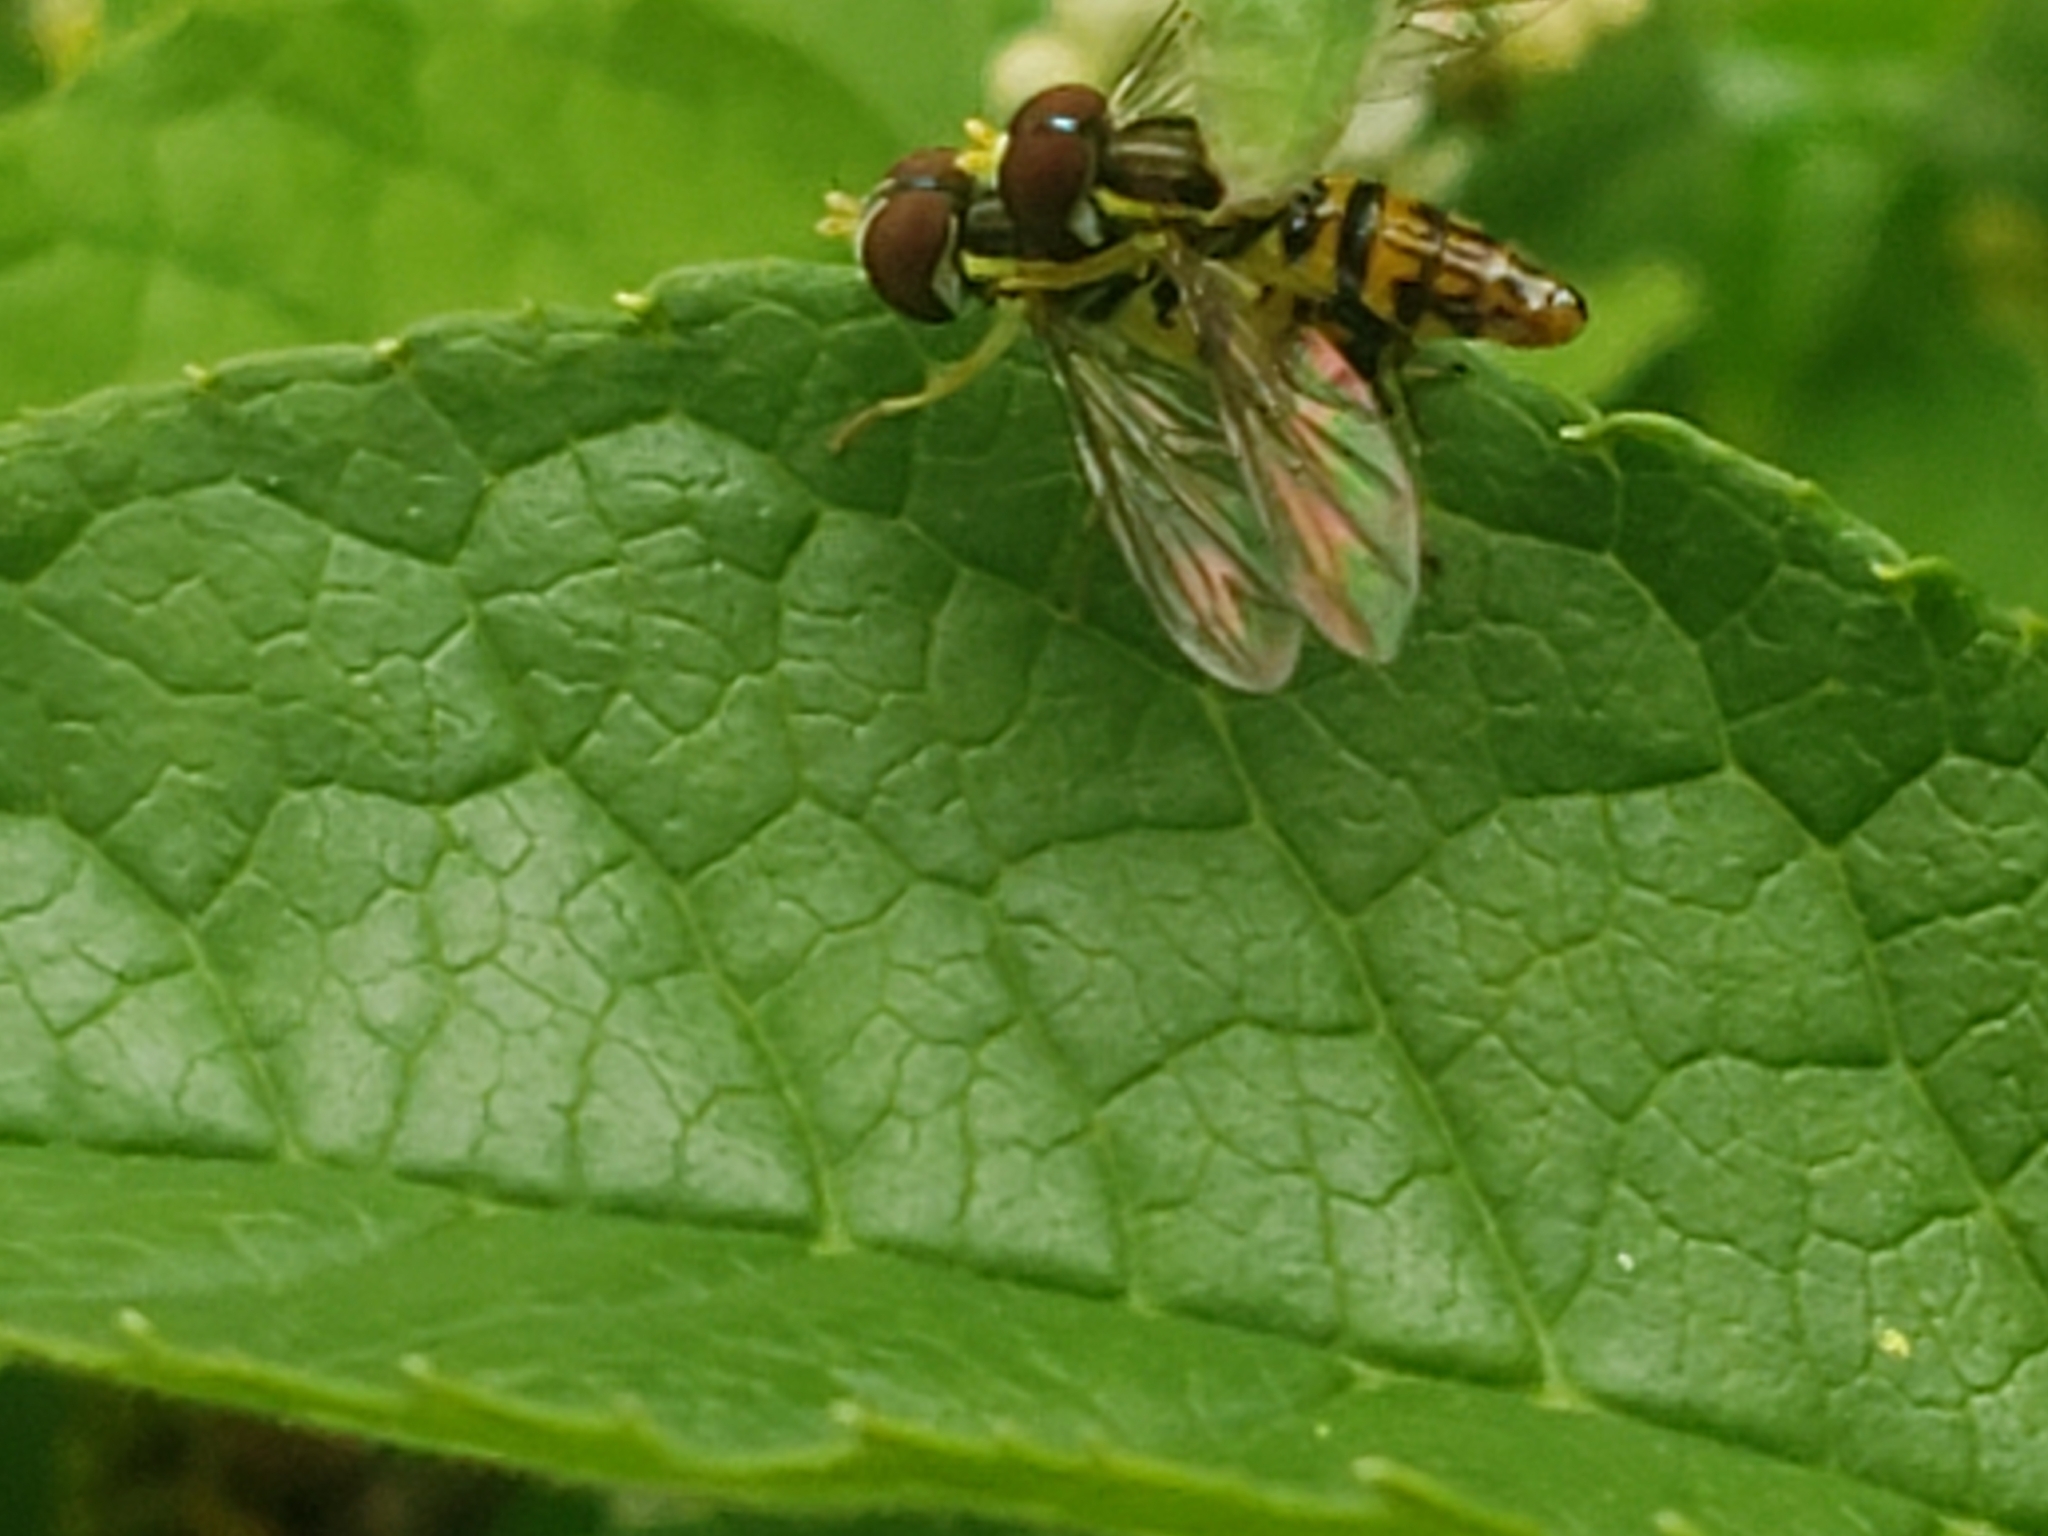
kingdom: Animalia
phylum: Arthropoda
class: Insecta
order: Diptera
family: Syrphidae
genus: Toxomerus
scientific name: Toxomerus geminatus
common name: Eastern calligrapher
